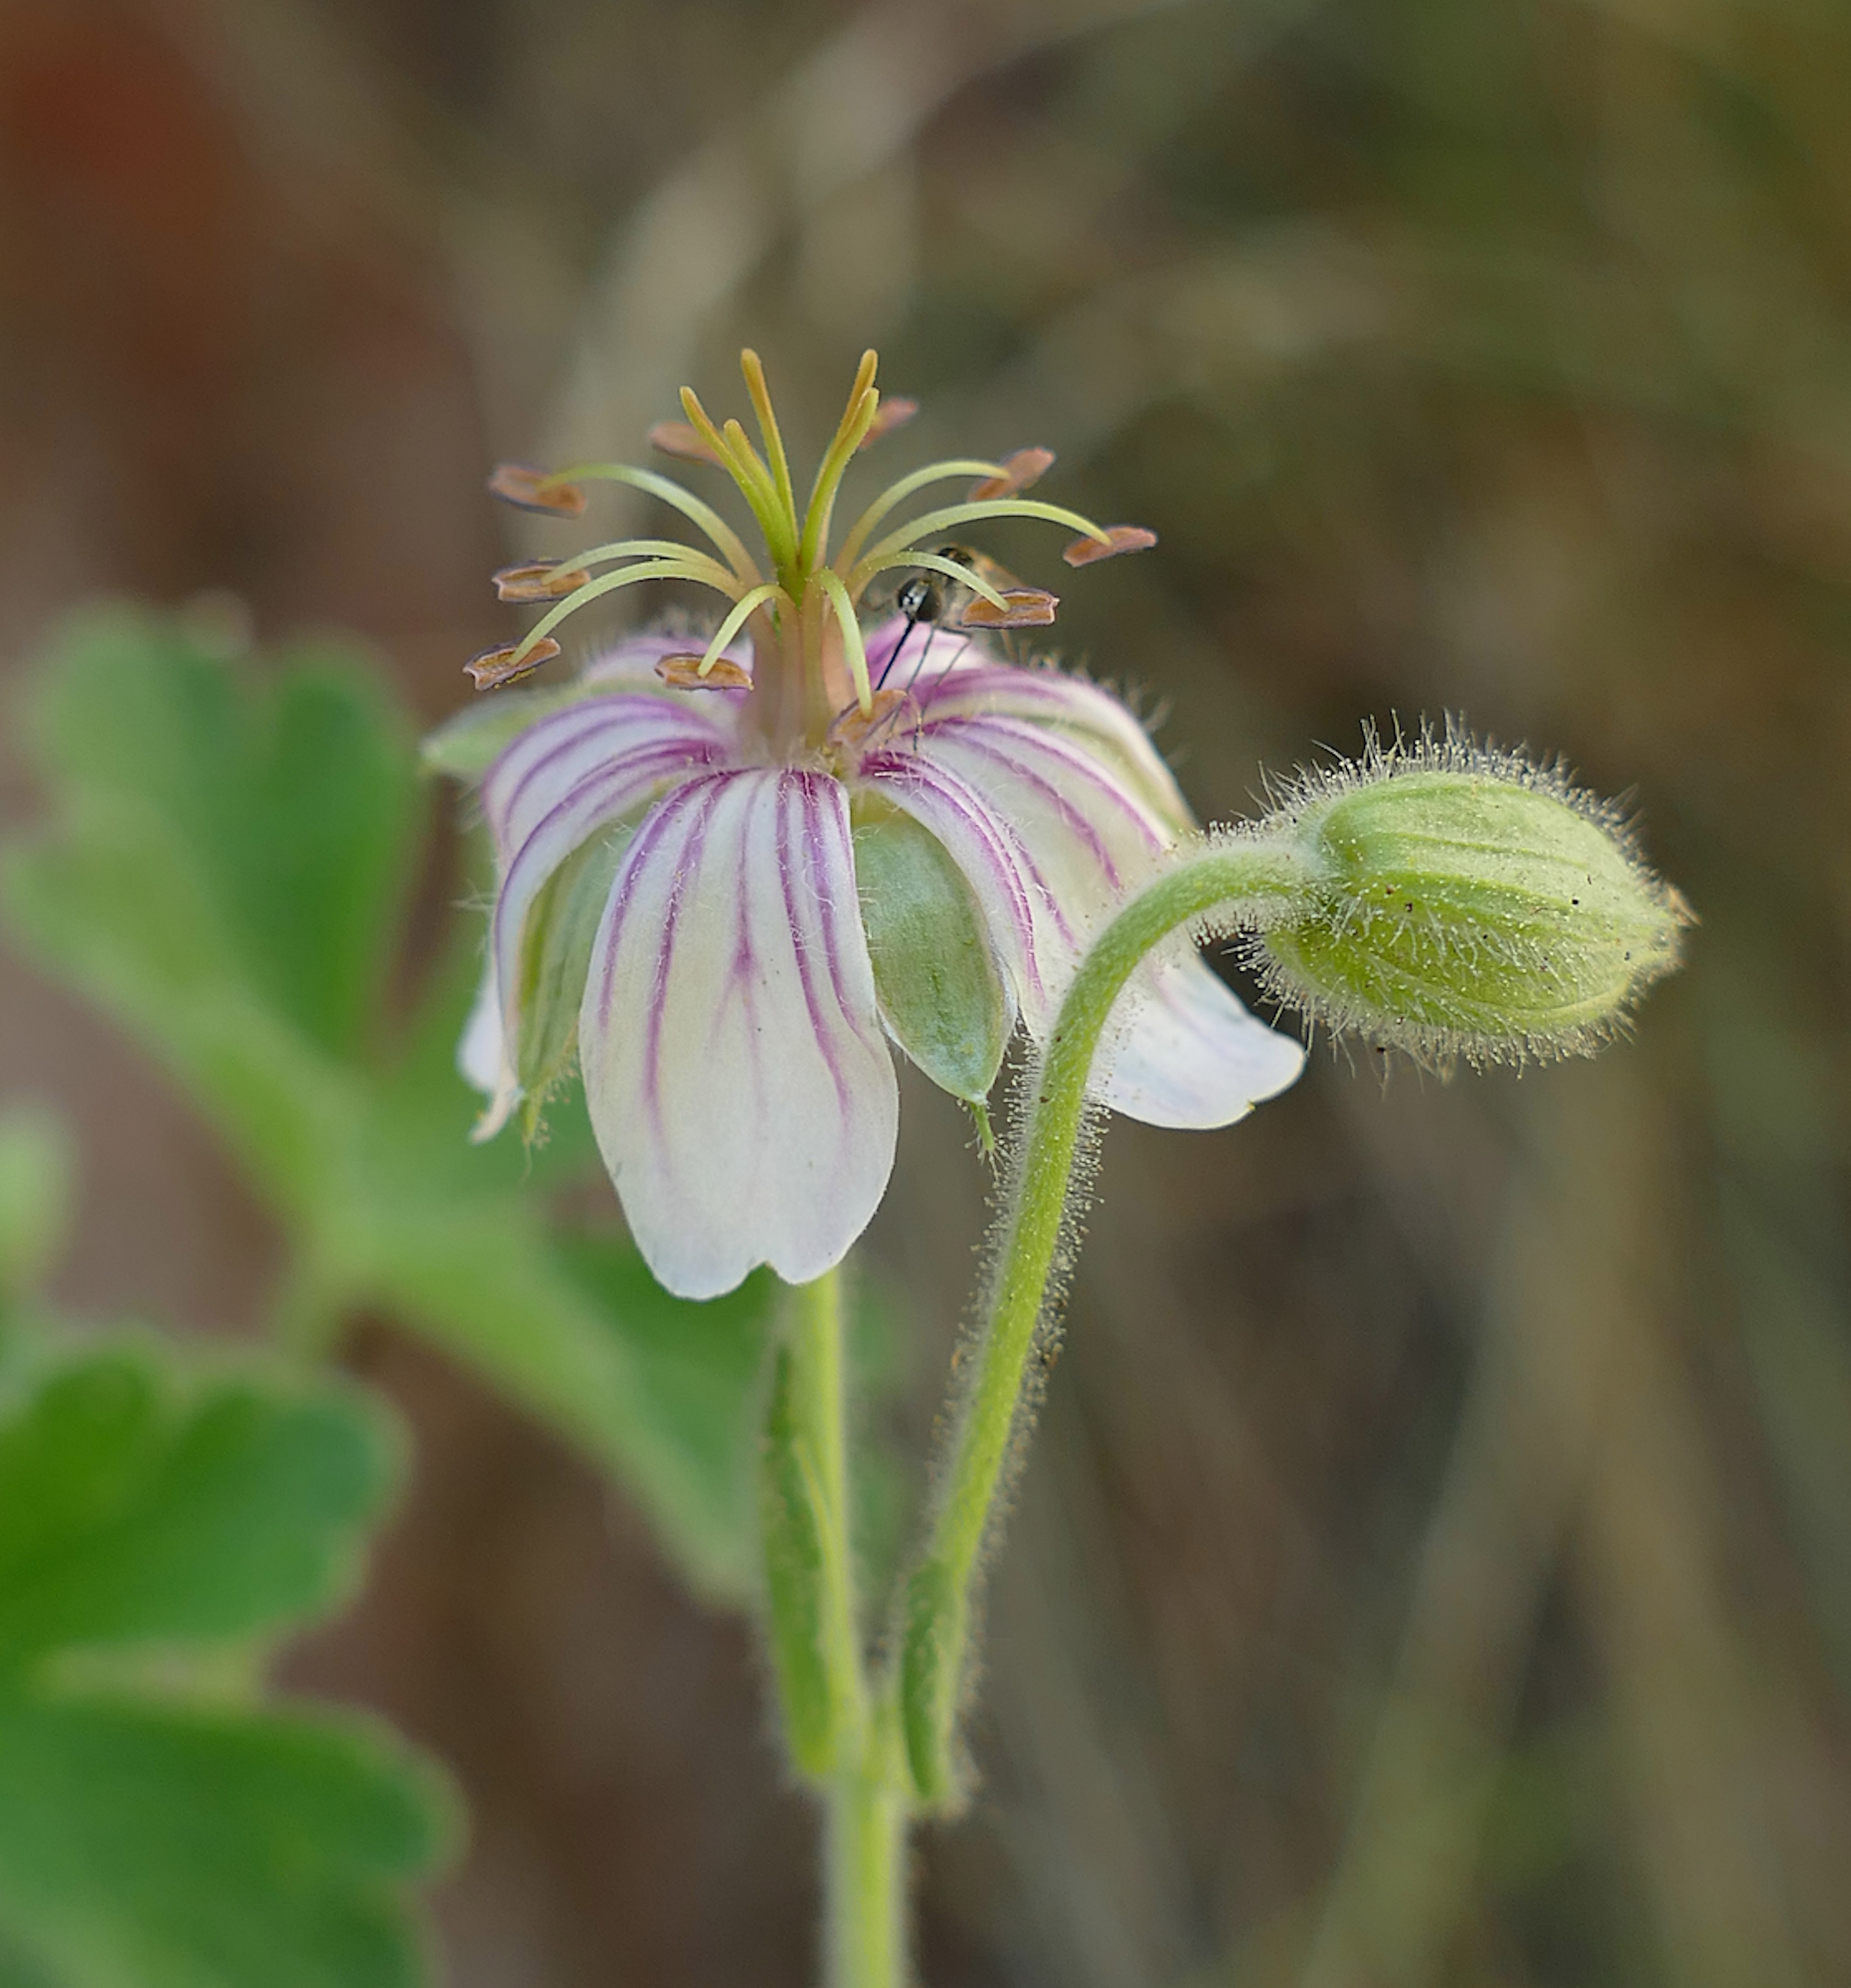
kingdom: Plantae
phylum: Tracheophyta
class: Magnoliopsida
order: Geraniales
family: Geraniaceae
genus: Geranium
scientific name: Geranium lentum
